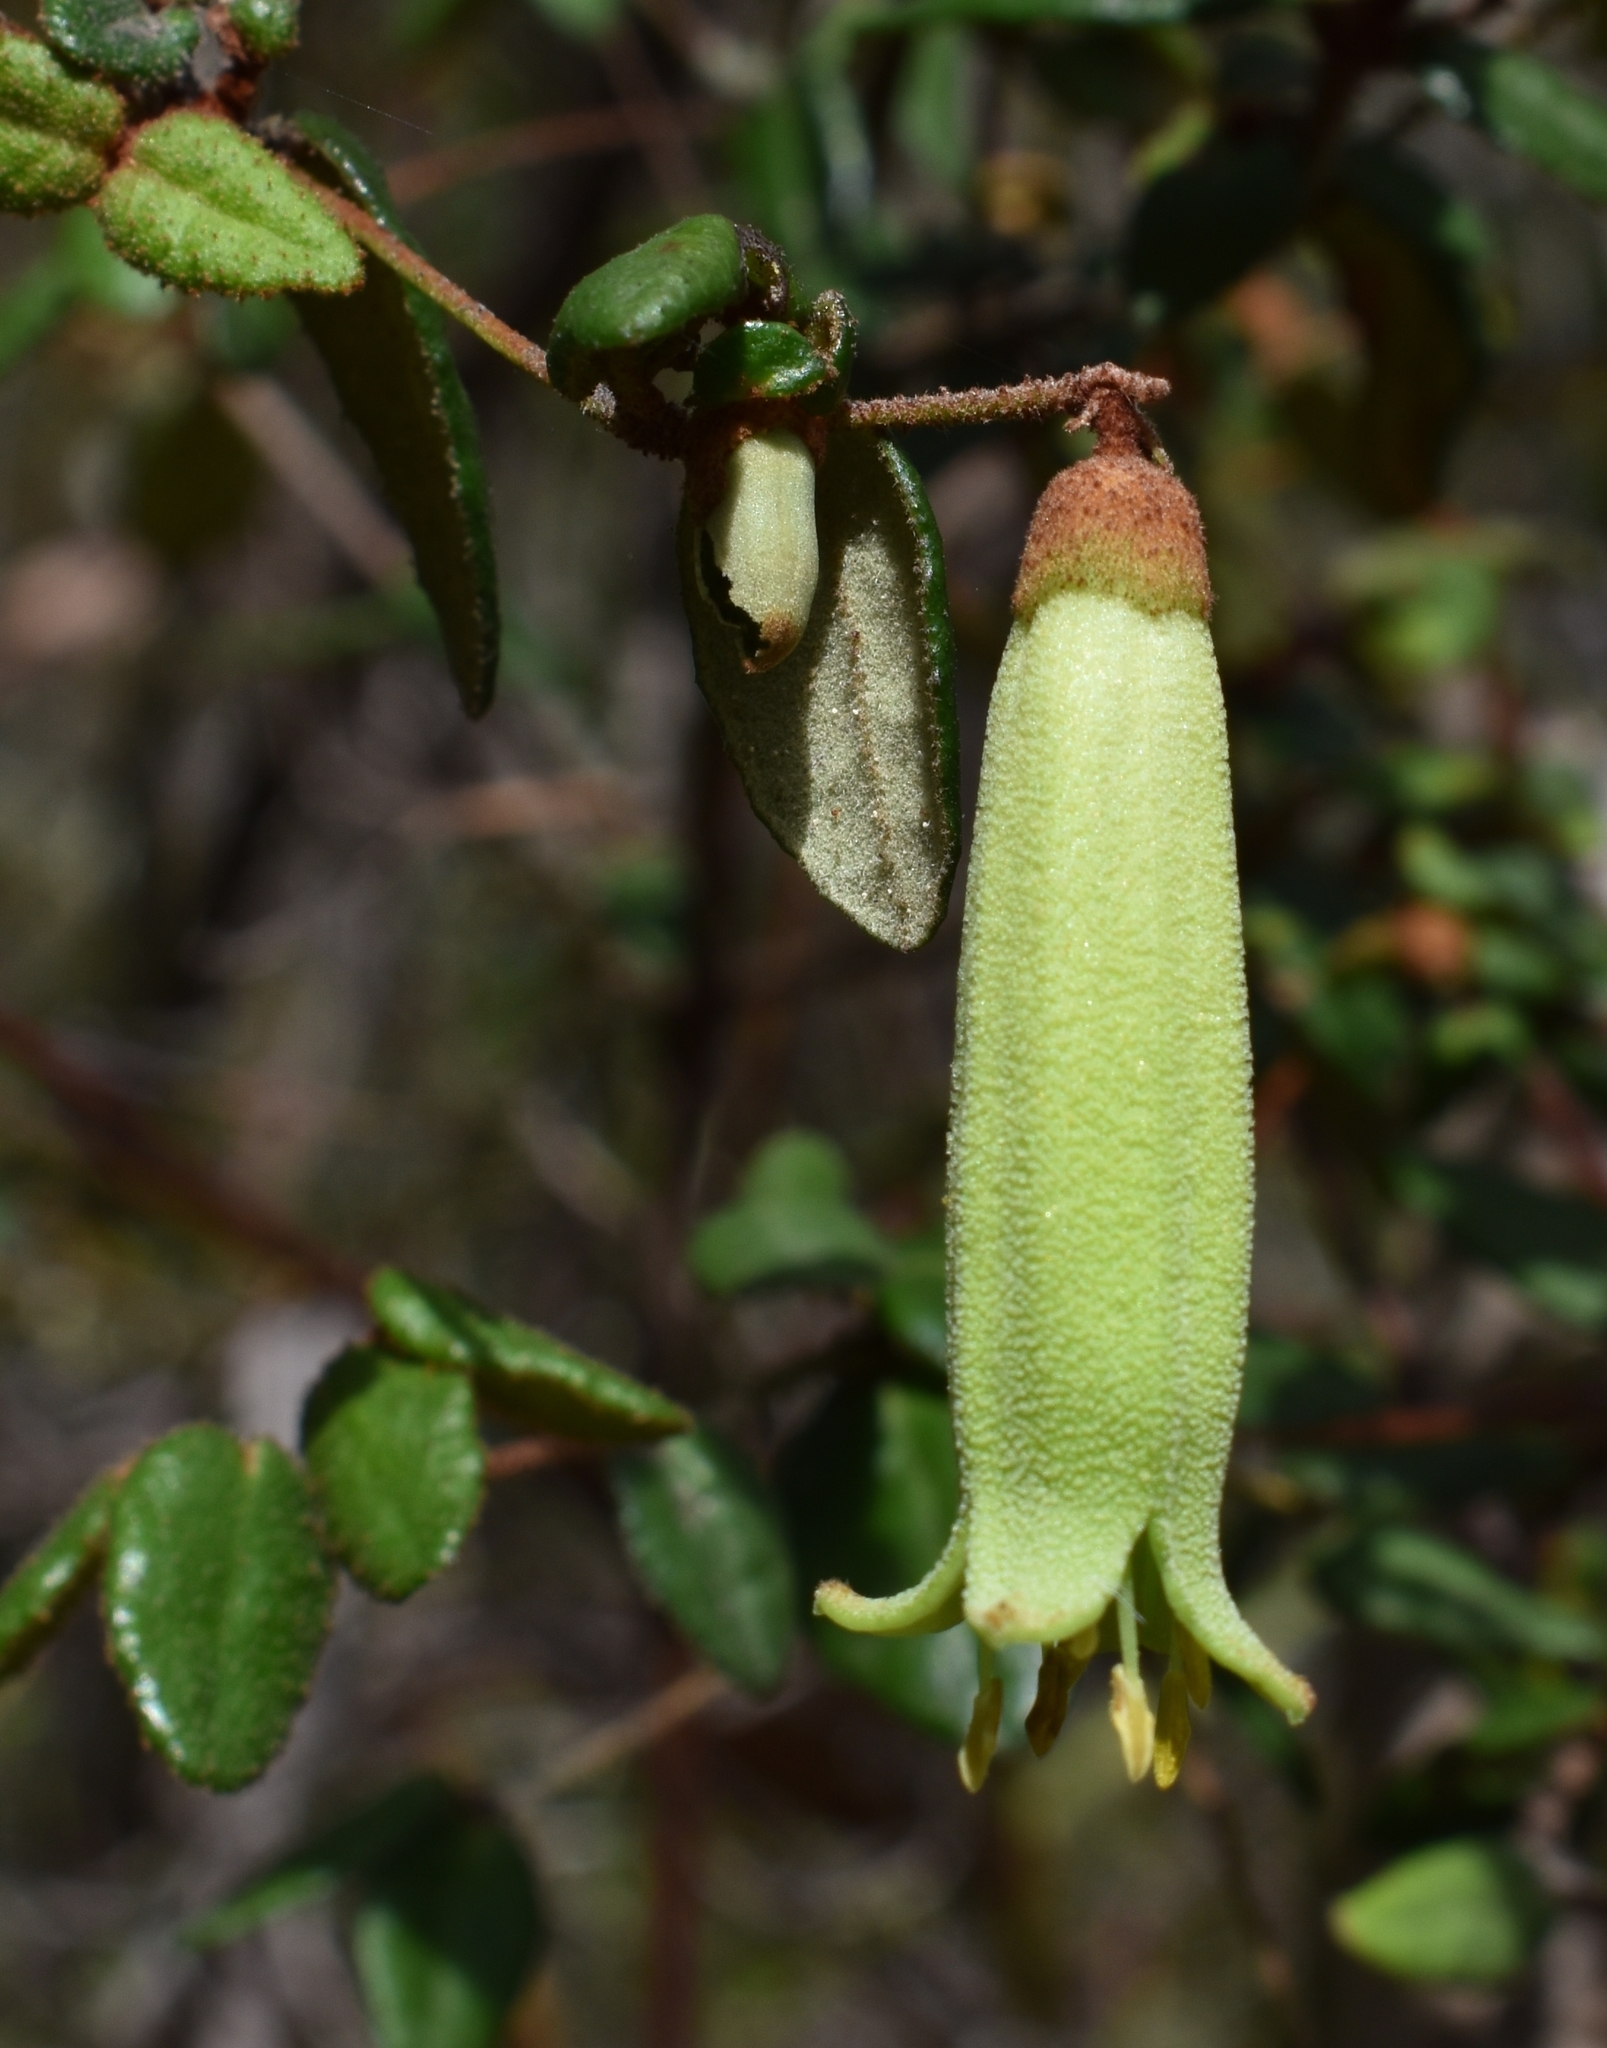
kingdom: Plantae
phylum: Tracheophyta
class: Magnoliopsida
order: Sapindales
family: Rutaceae
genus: Correa
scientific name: Correa reflexa
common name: Common correa
